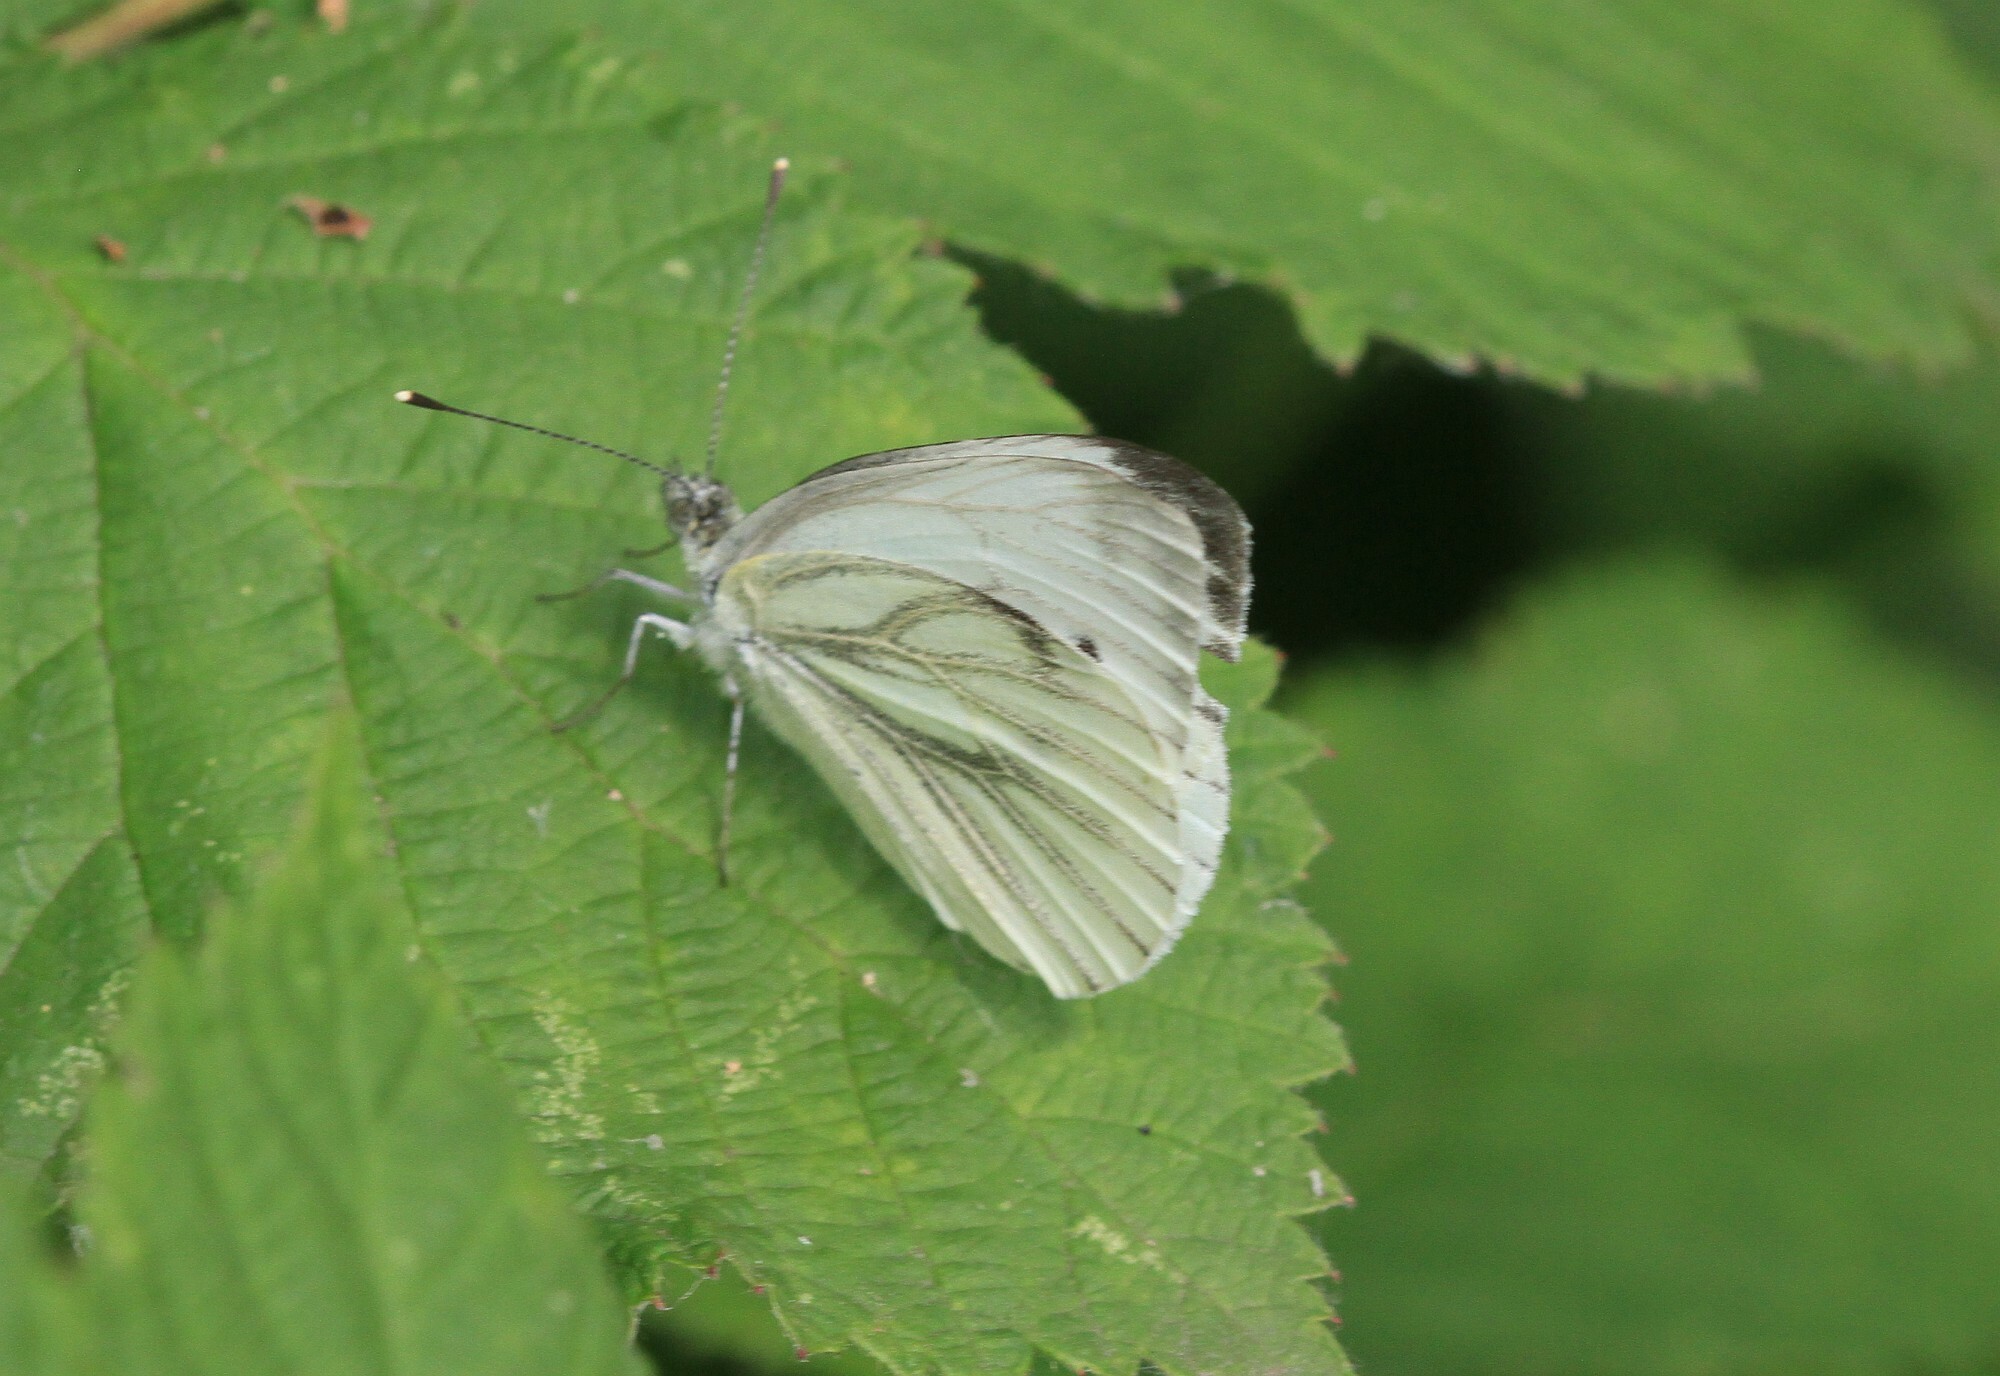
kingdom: Animalia
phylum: Arthropoda
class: Insecta
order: Lepidoptera
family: Pieridae
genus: Pieris
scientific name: Pieris napi
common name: Green-veined white
